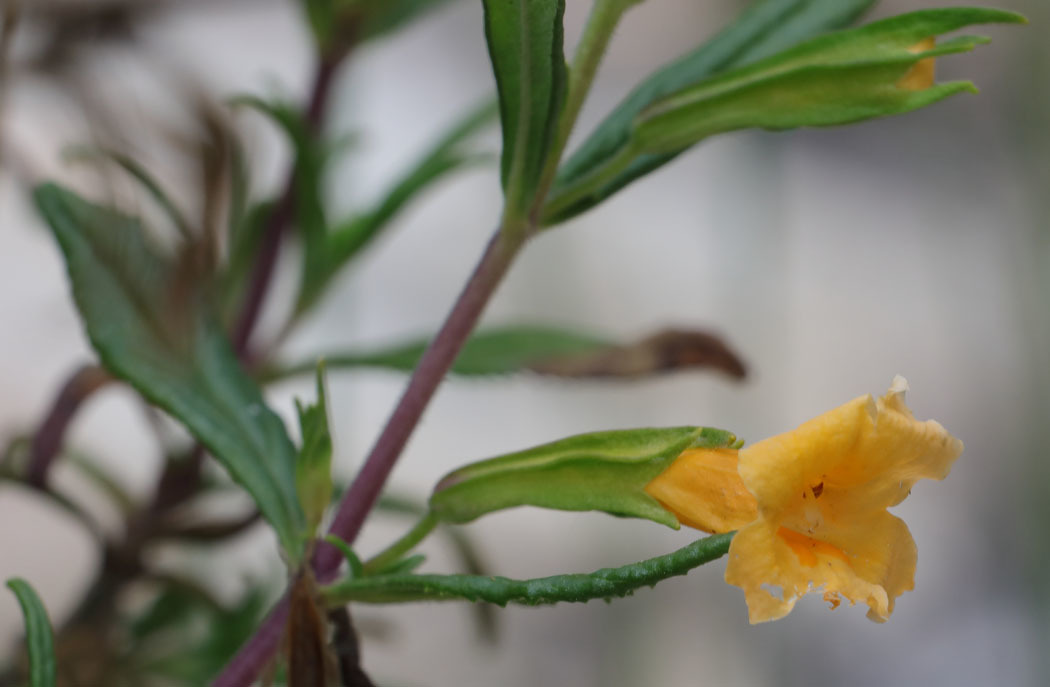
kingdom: Plantae
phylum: Tracheophyta
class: Magnoliopsida
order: Lamiales
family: Phrymaceae
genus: Diplacus
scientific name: Diplacus aurantiacus
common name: Bush monkey-flower
